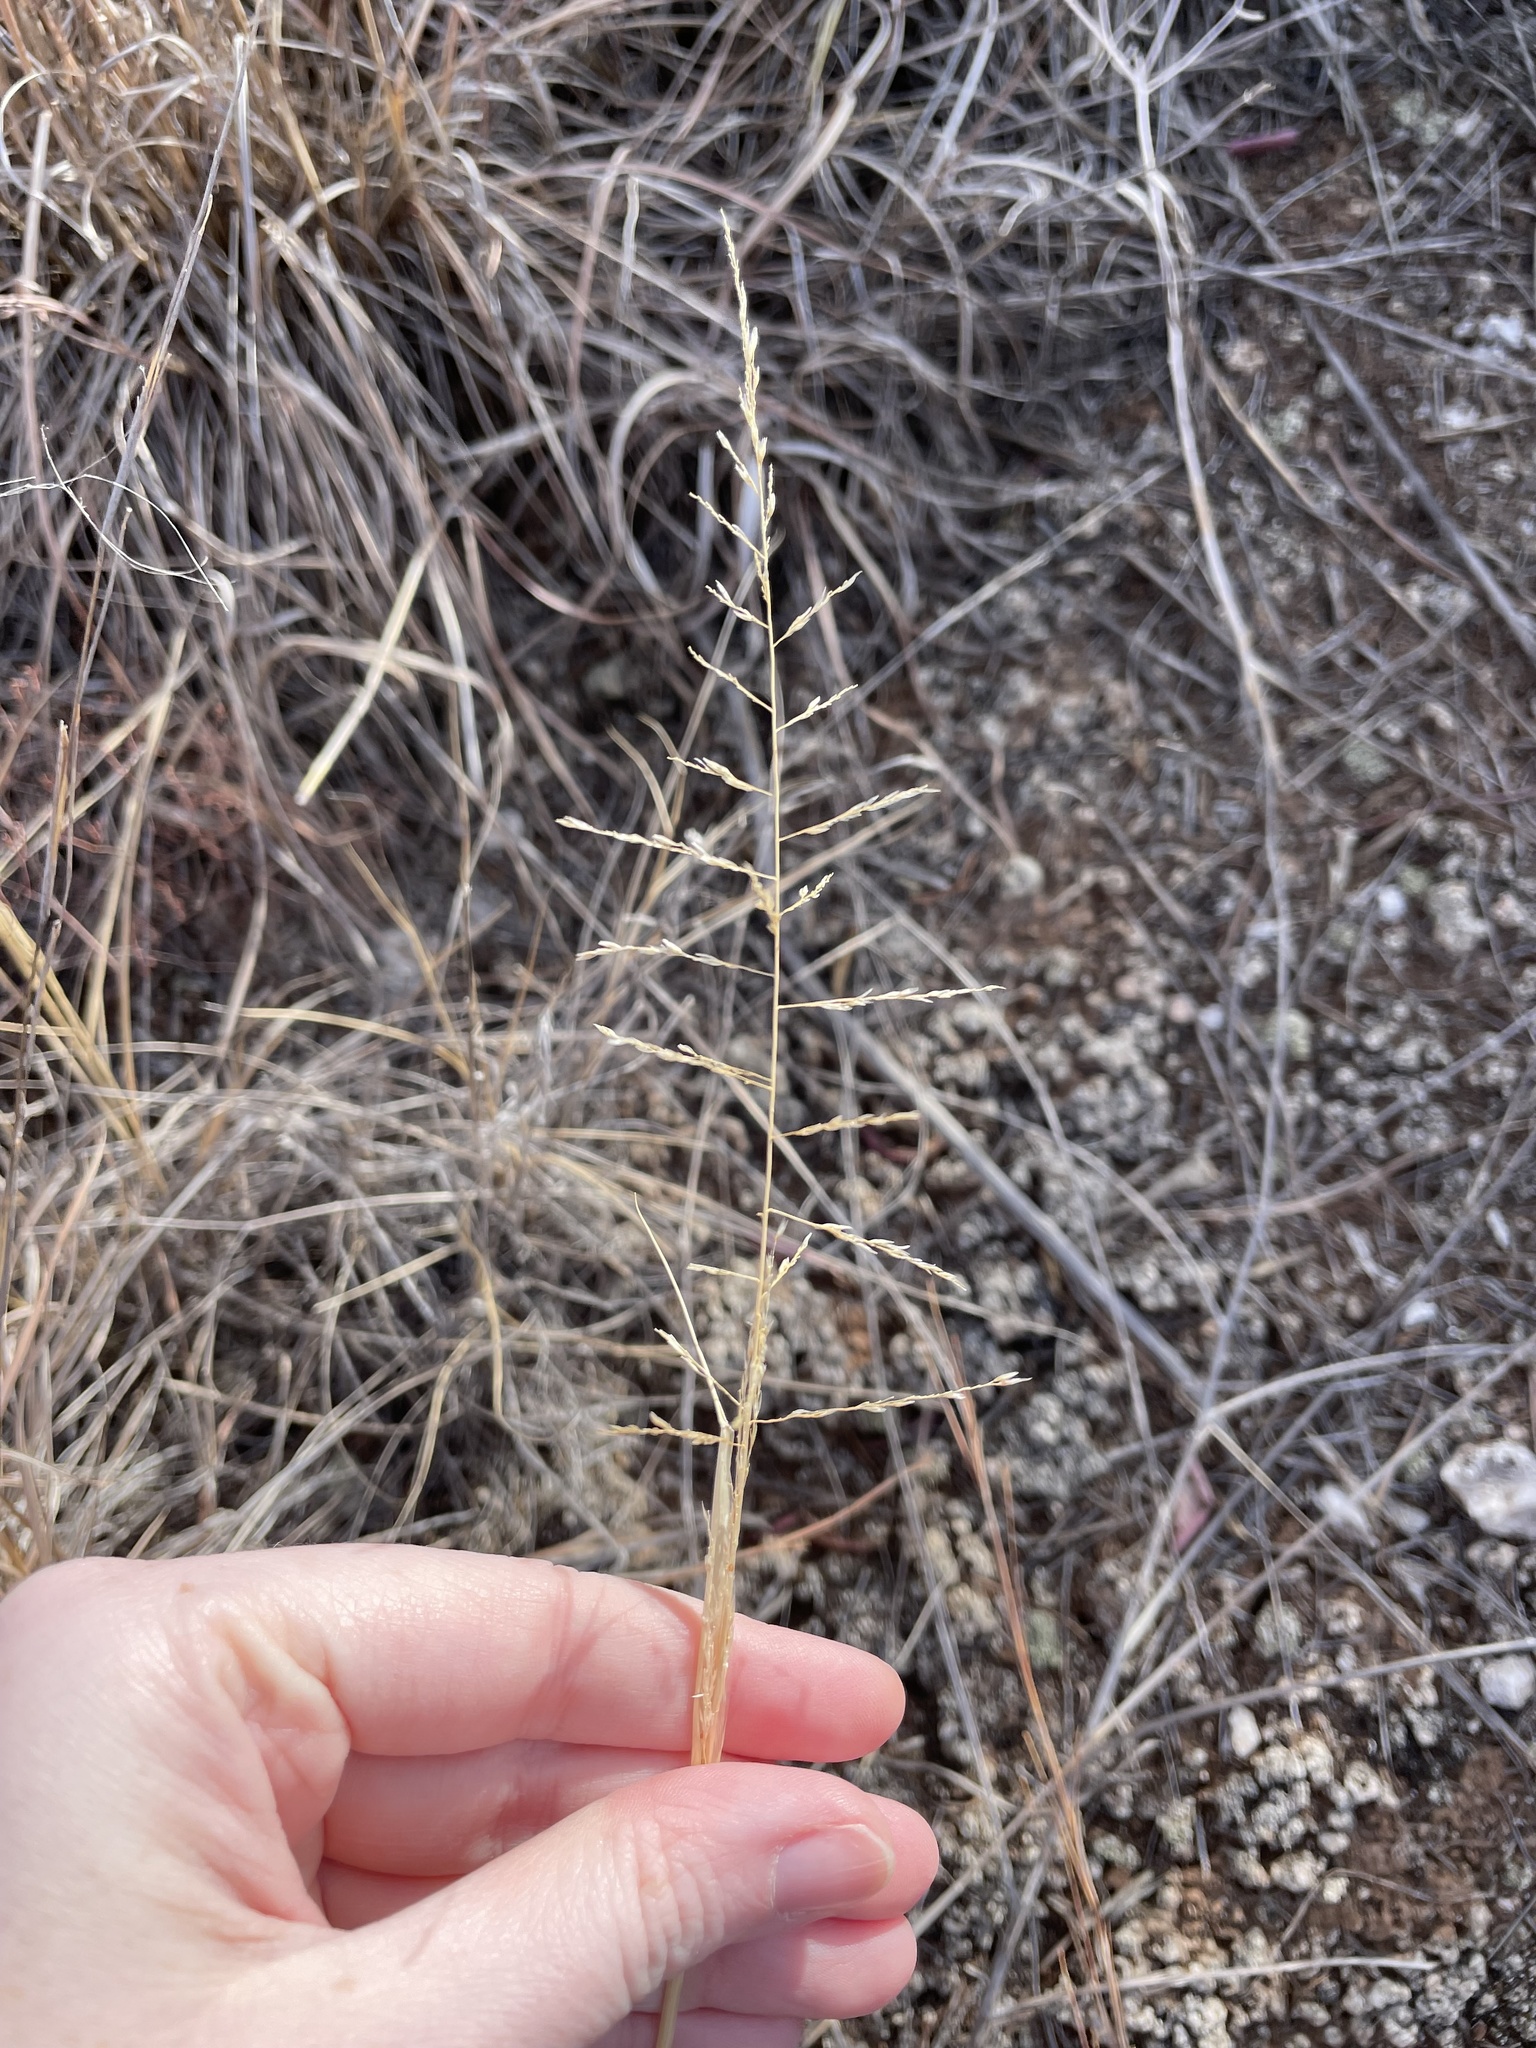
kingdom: Plantae
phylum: Tracheophyta
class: Liliopsida
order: Poales
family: Poaceae
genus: Sporobolus
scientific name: Sporobolus cryptandrus
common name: Sand dropseed
